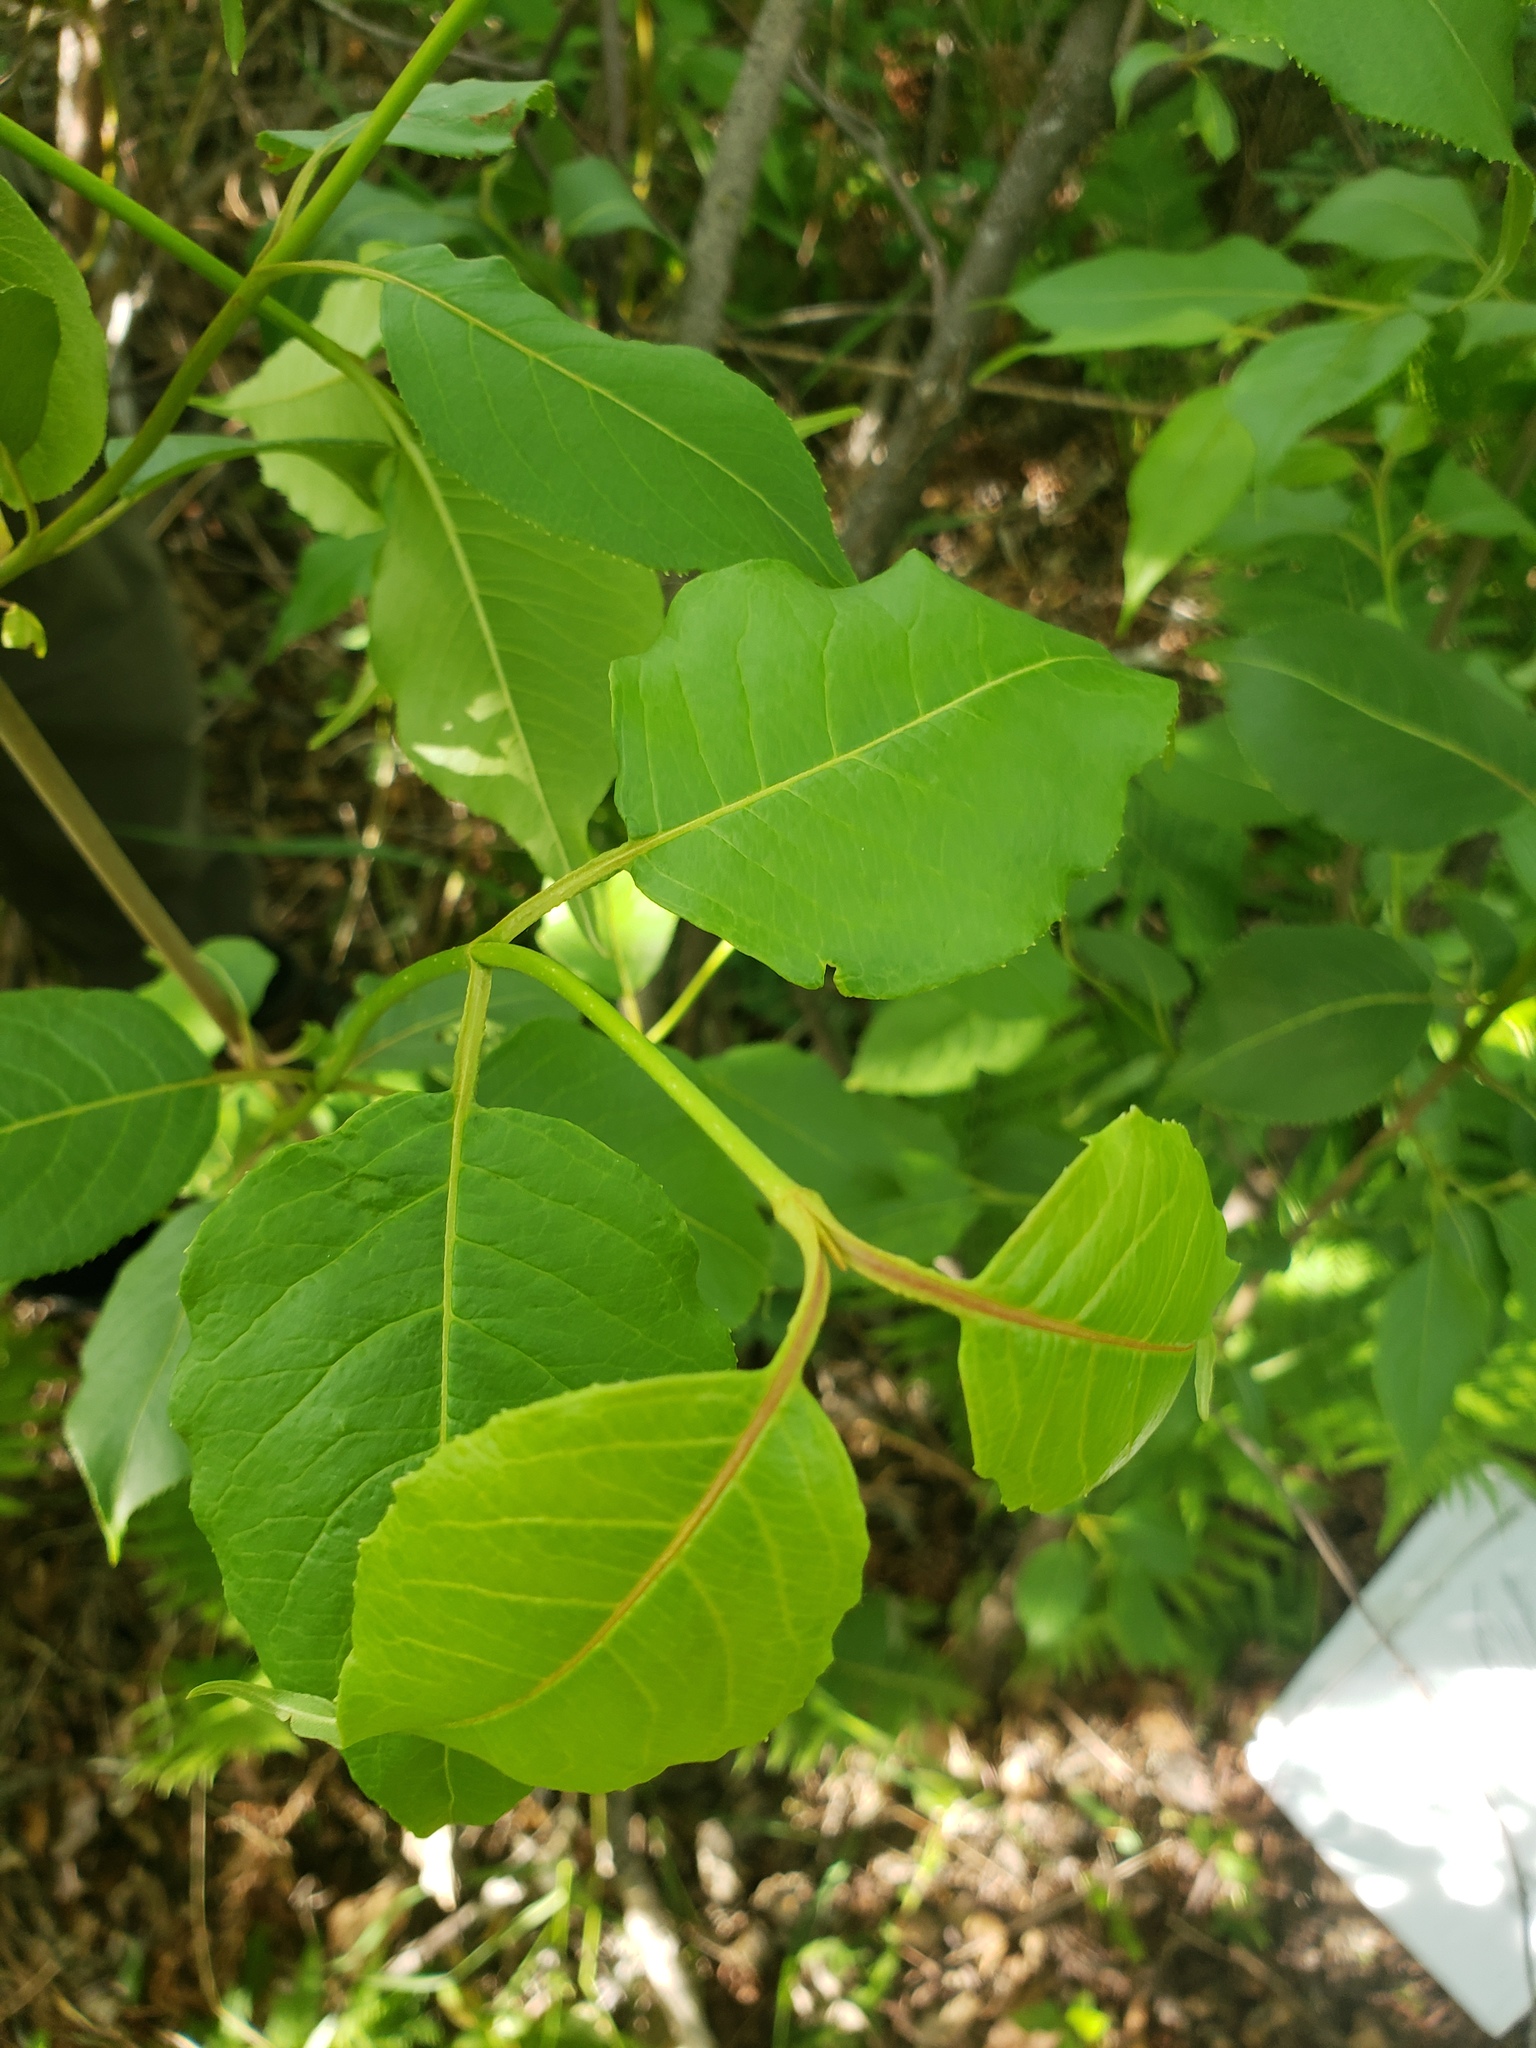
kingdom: Plantae
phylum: Tracheophyta
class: Magnoliopsida
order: Dipsacales
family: Viburnaceae
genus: Viburnum
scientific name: Viburnum lentago
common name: Black haw
